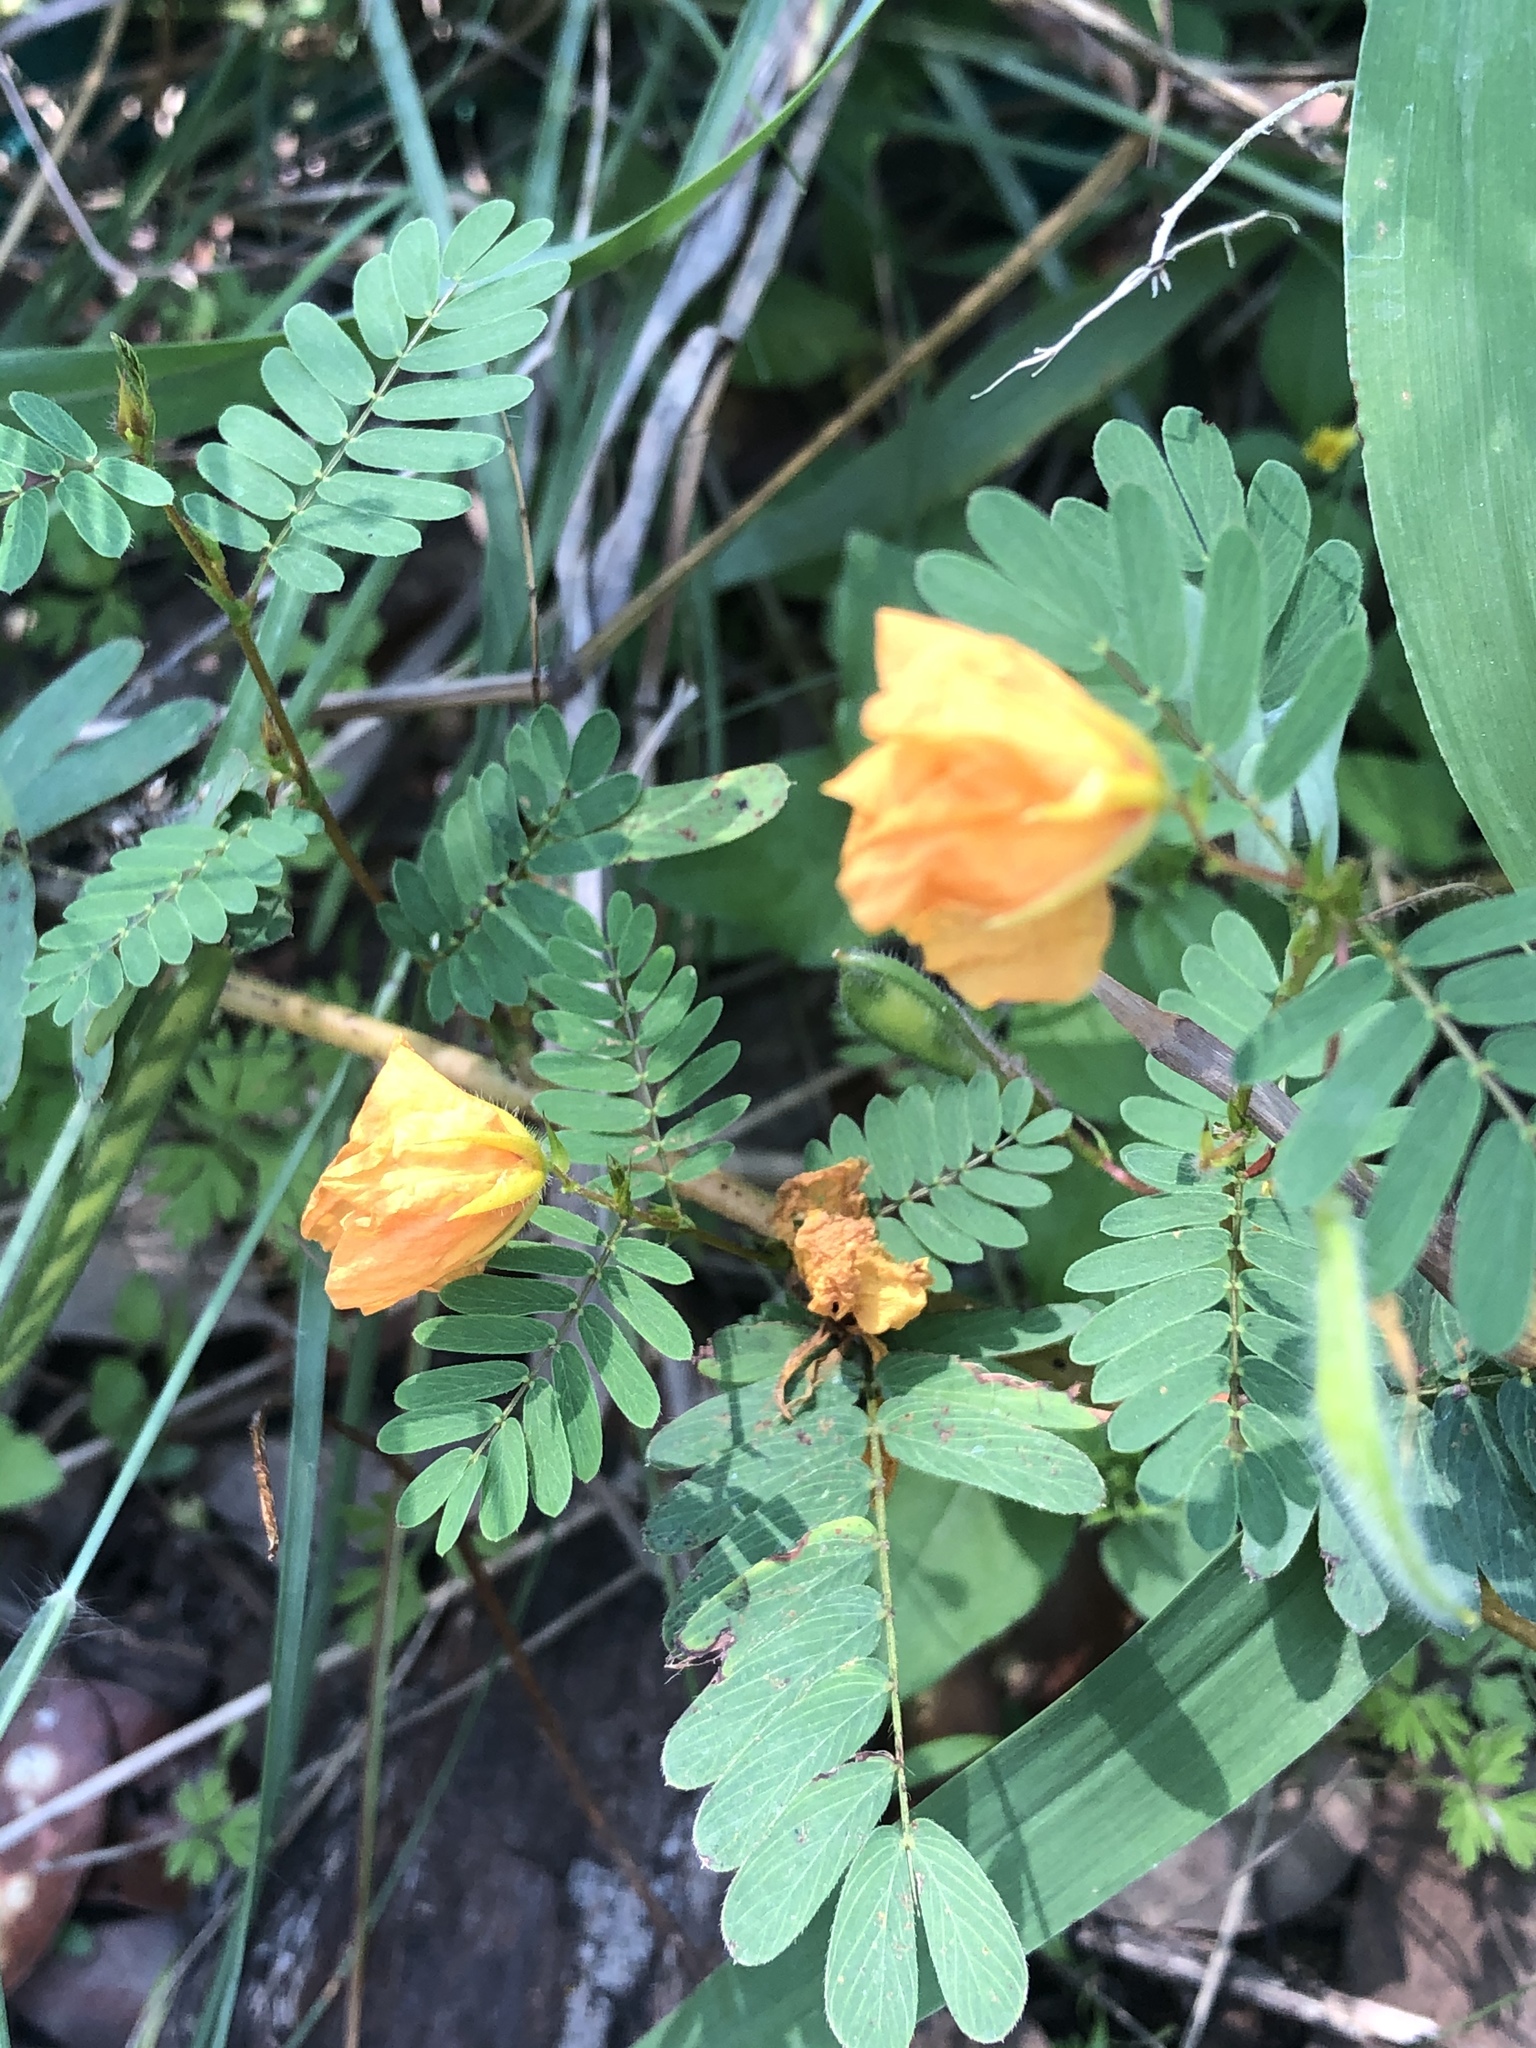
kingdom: Plantae
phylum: Tracheophyta
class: Magnoliopsida
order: Fabales
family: Fabaceae
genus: Chamaecrista
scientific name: Chamaecrista fasciculata
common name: Golden cassia
